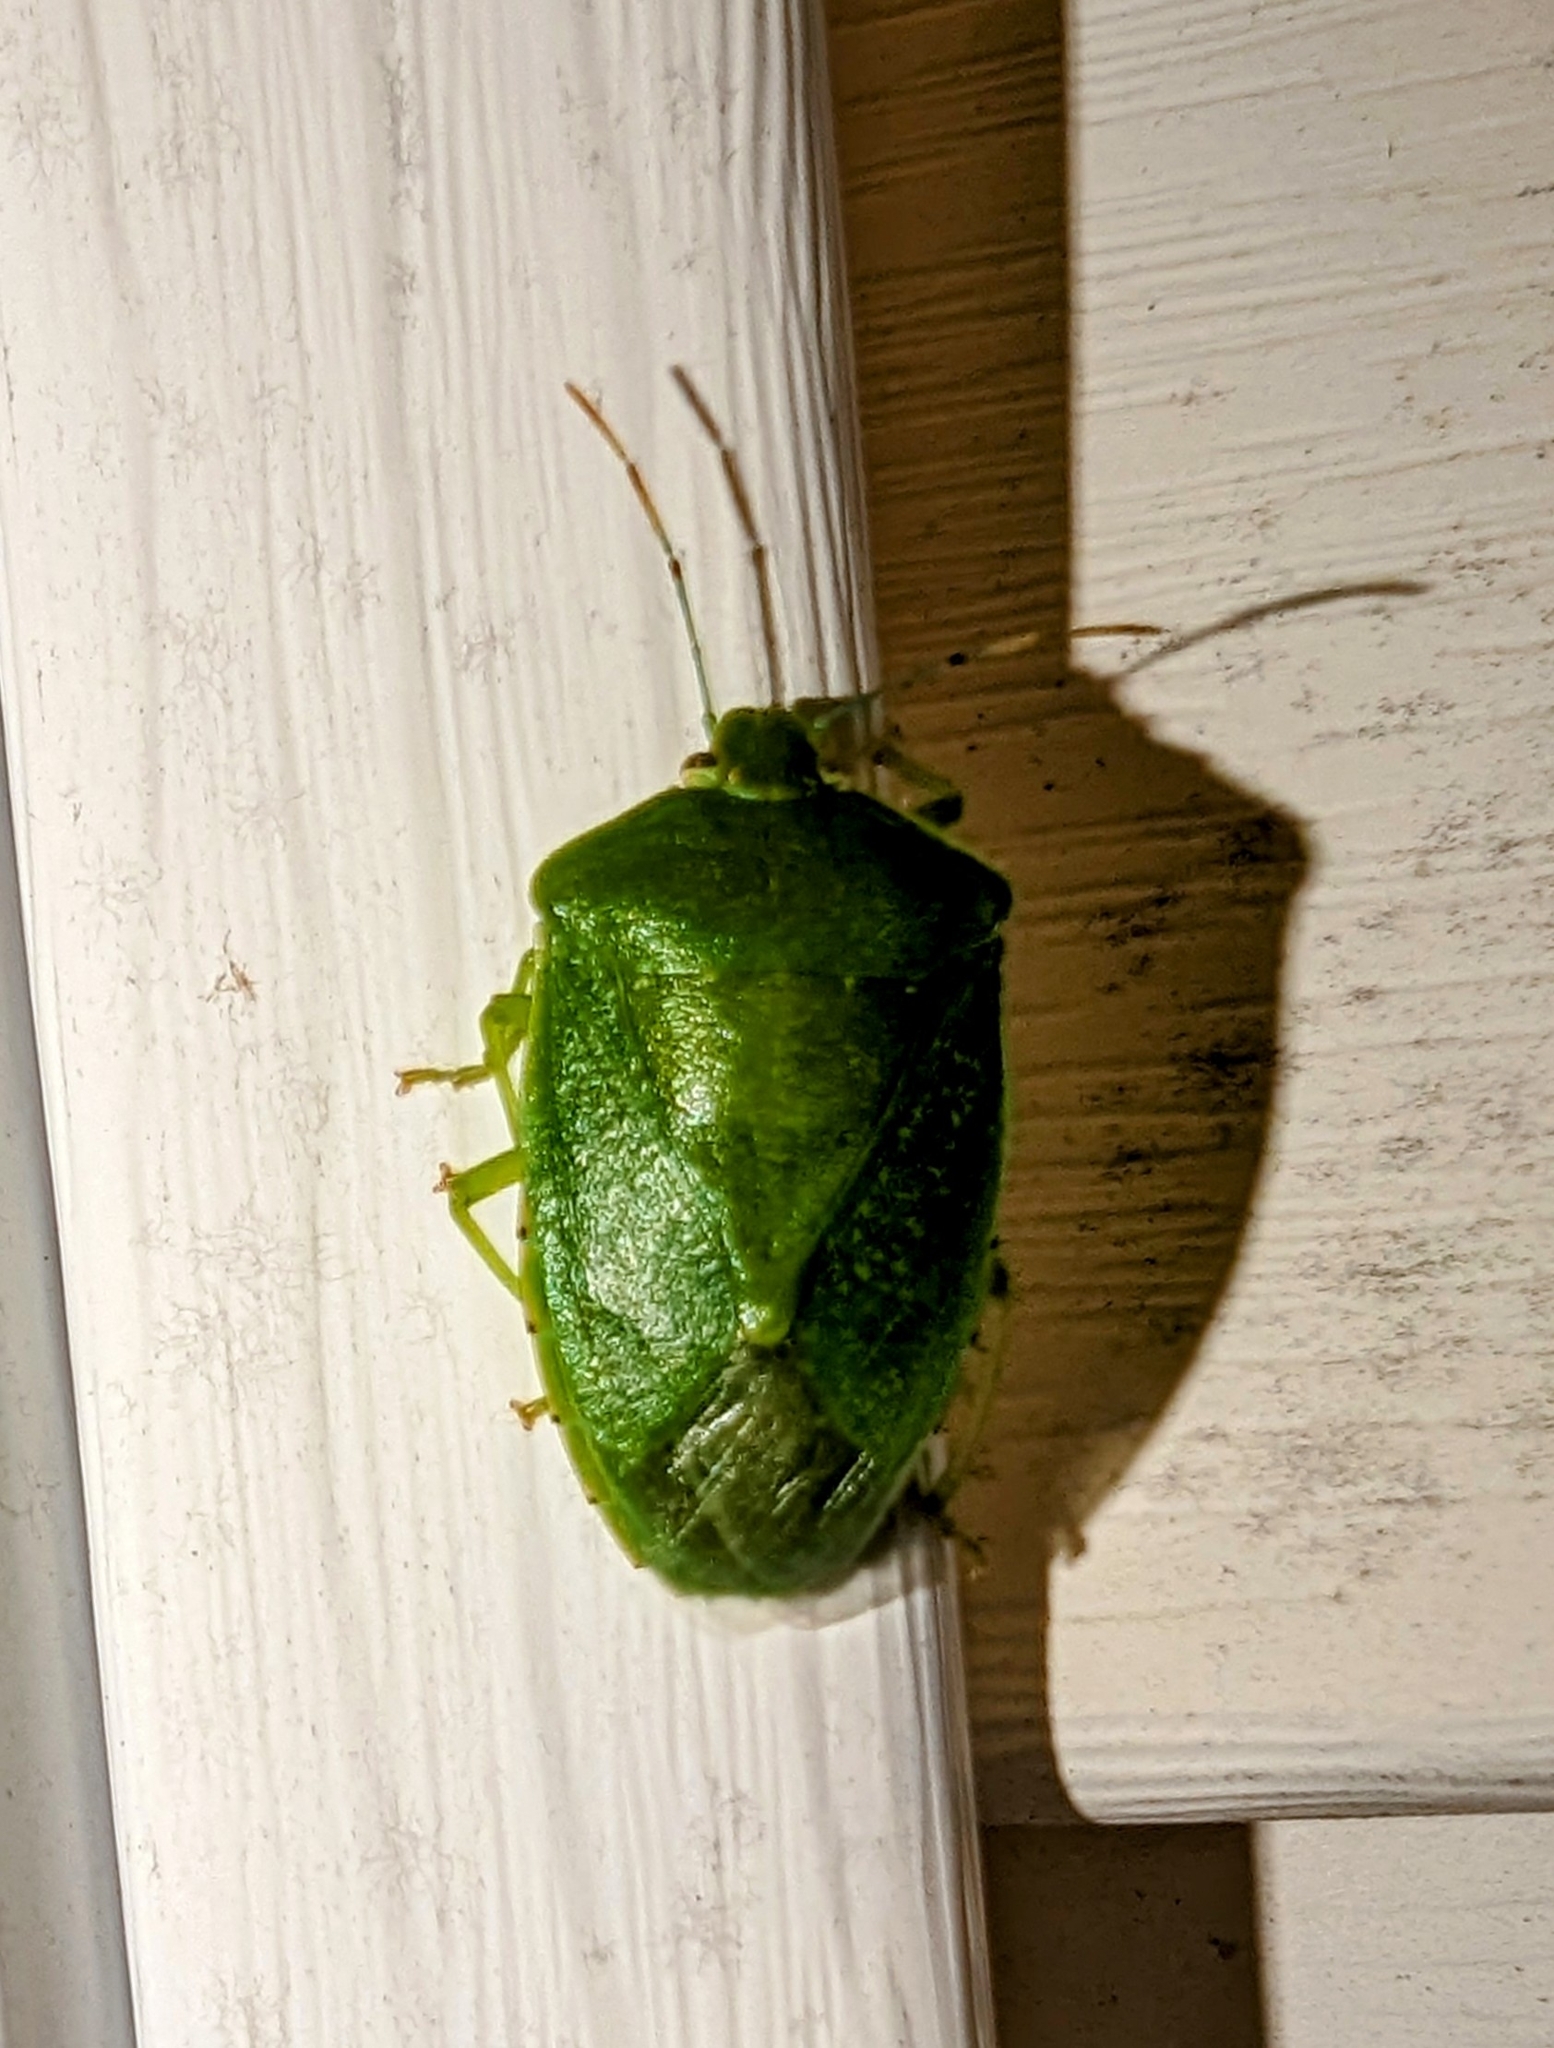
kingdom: Animalia
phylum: Arthropoda
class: Insecta
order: Hemiptera
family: Pentatomidae
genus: Chinavia
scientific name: Chinavia hilaris
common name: Green stink bug
